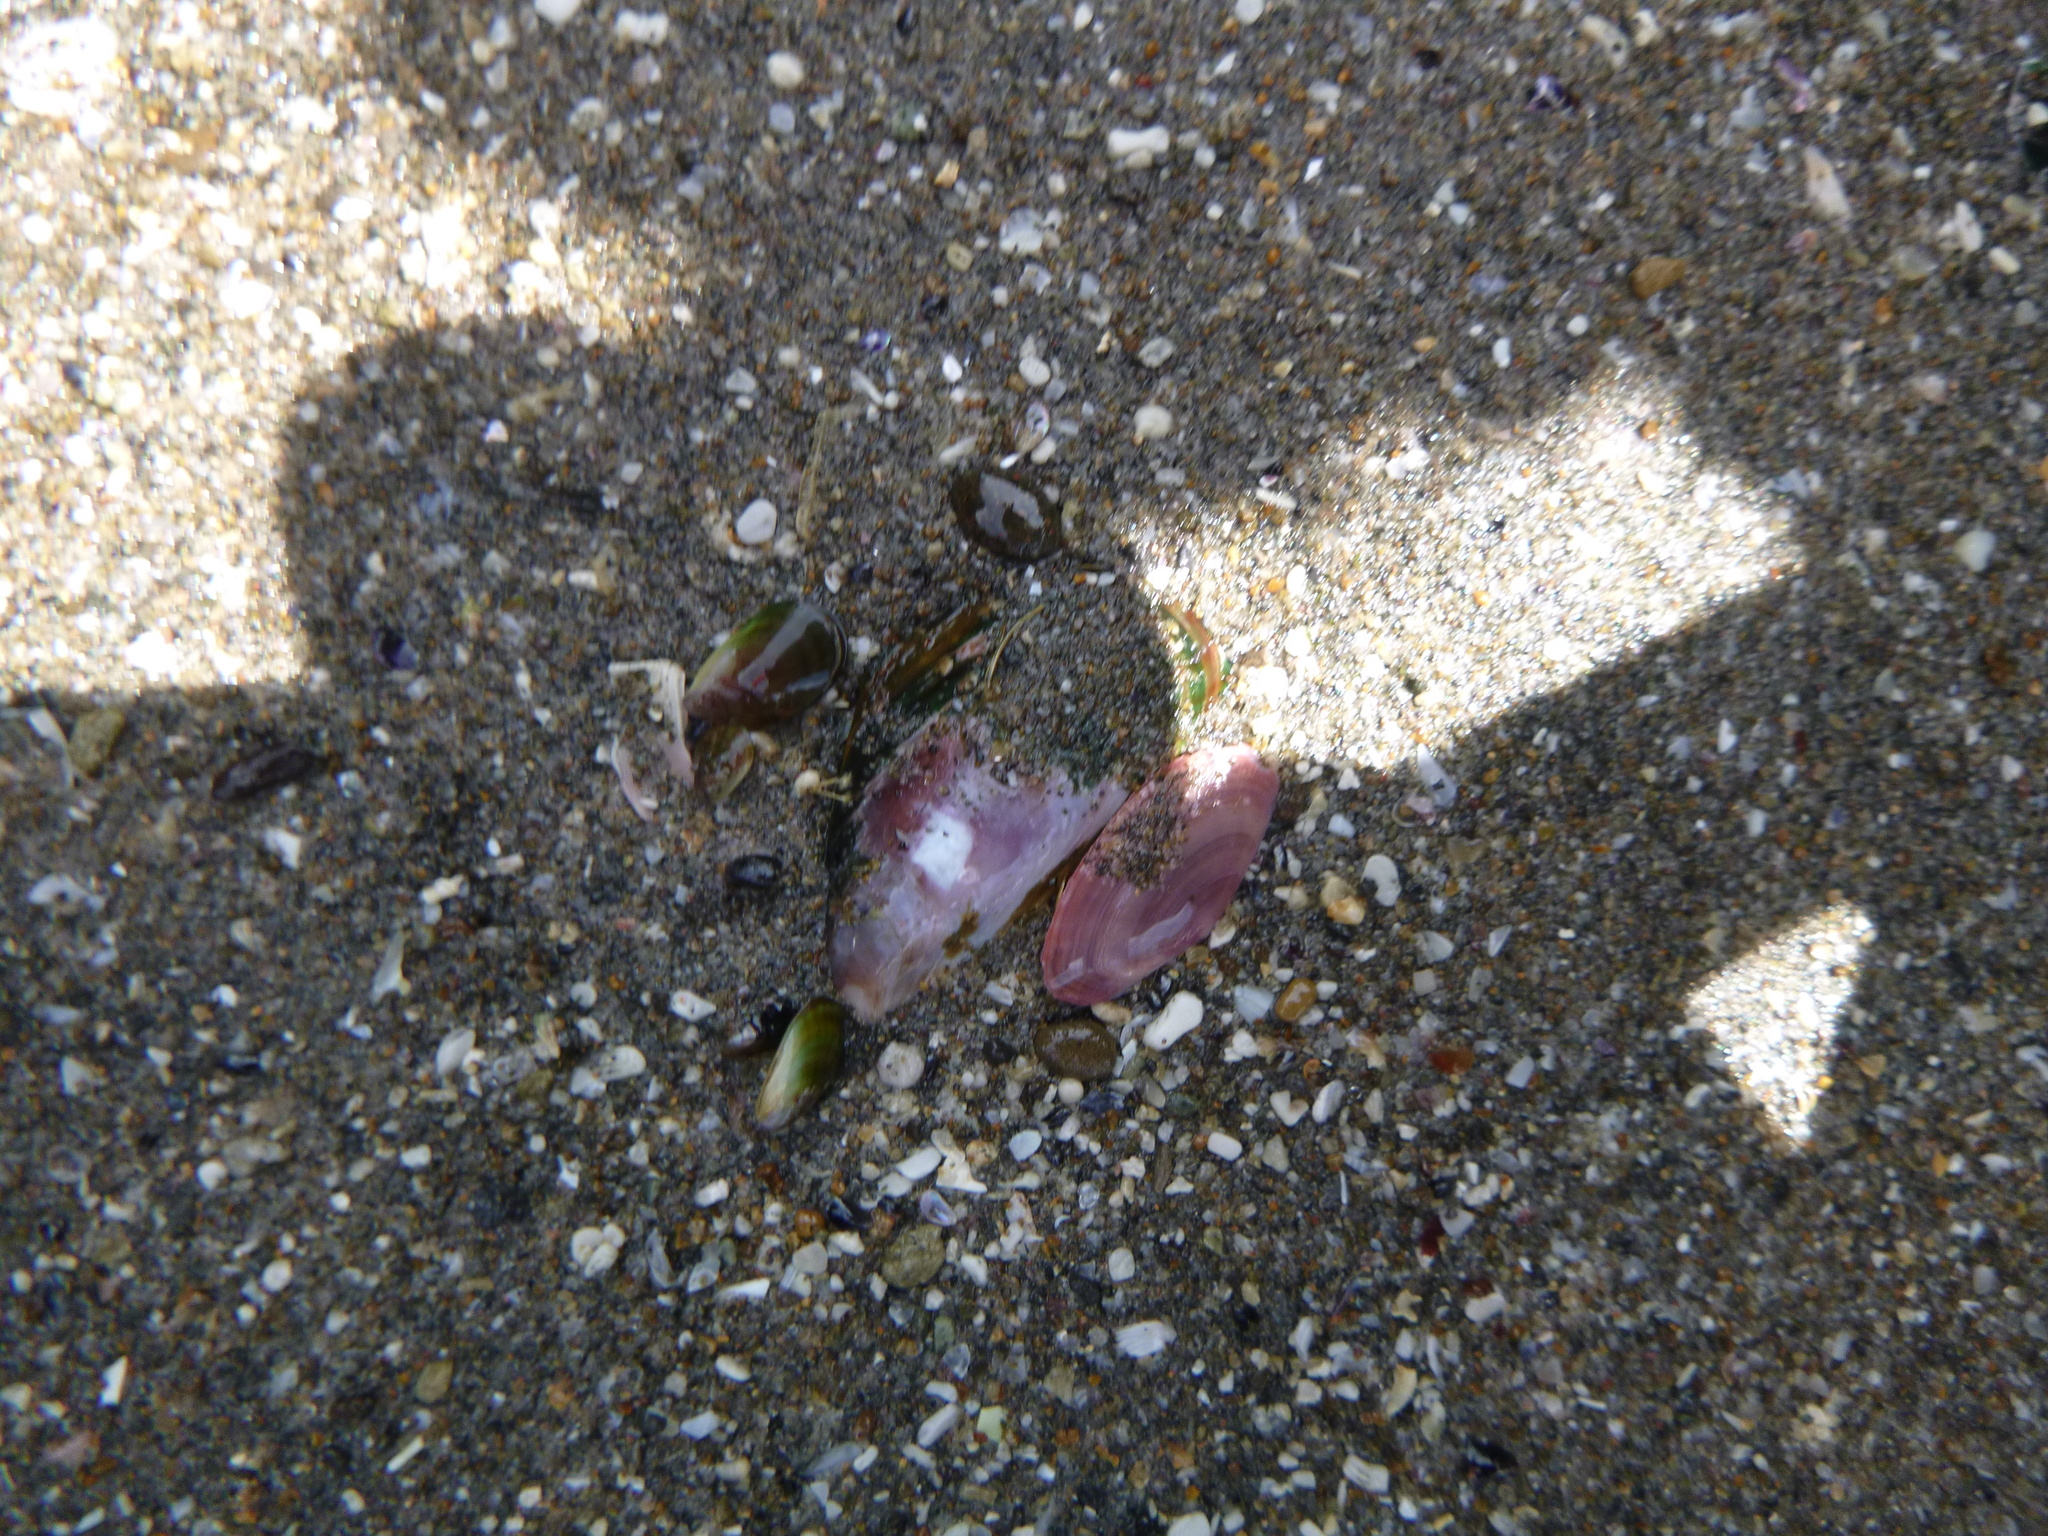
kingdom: Animalia
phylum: Mollusca
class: Bivalvia
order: Cardiida
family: Psammobiidae
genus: Gari
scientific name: Gari lineolata
